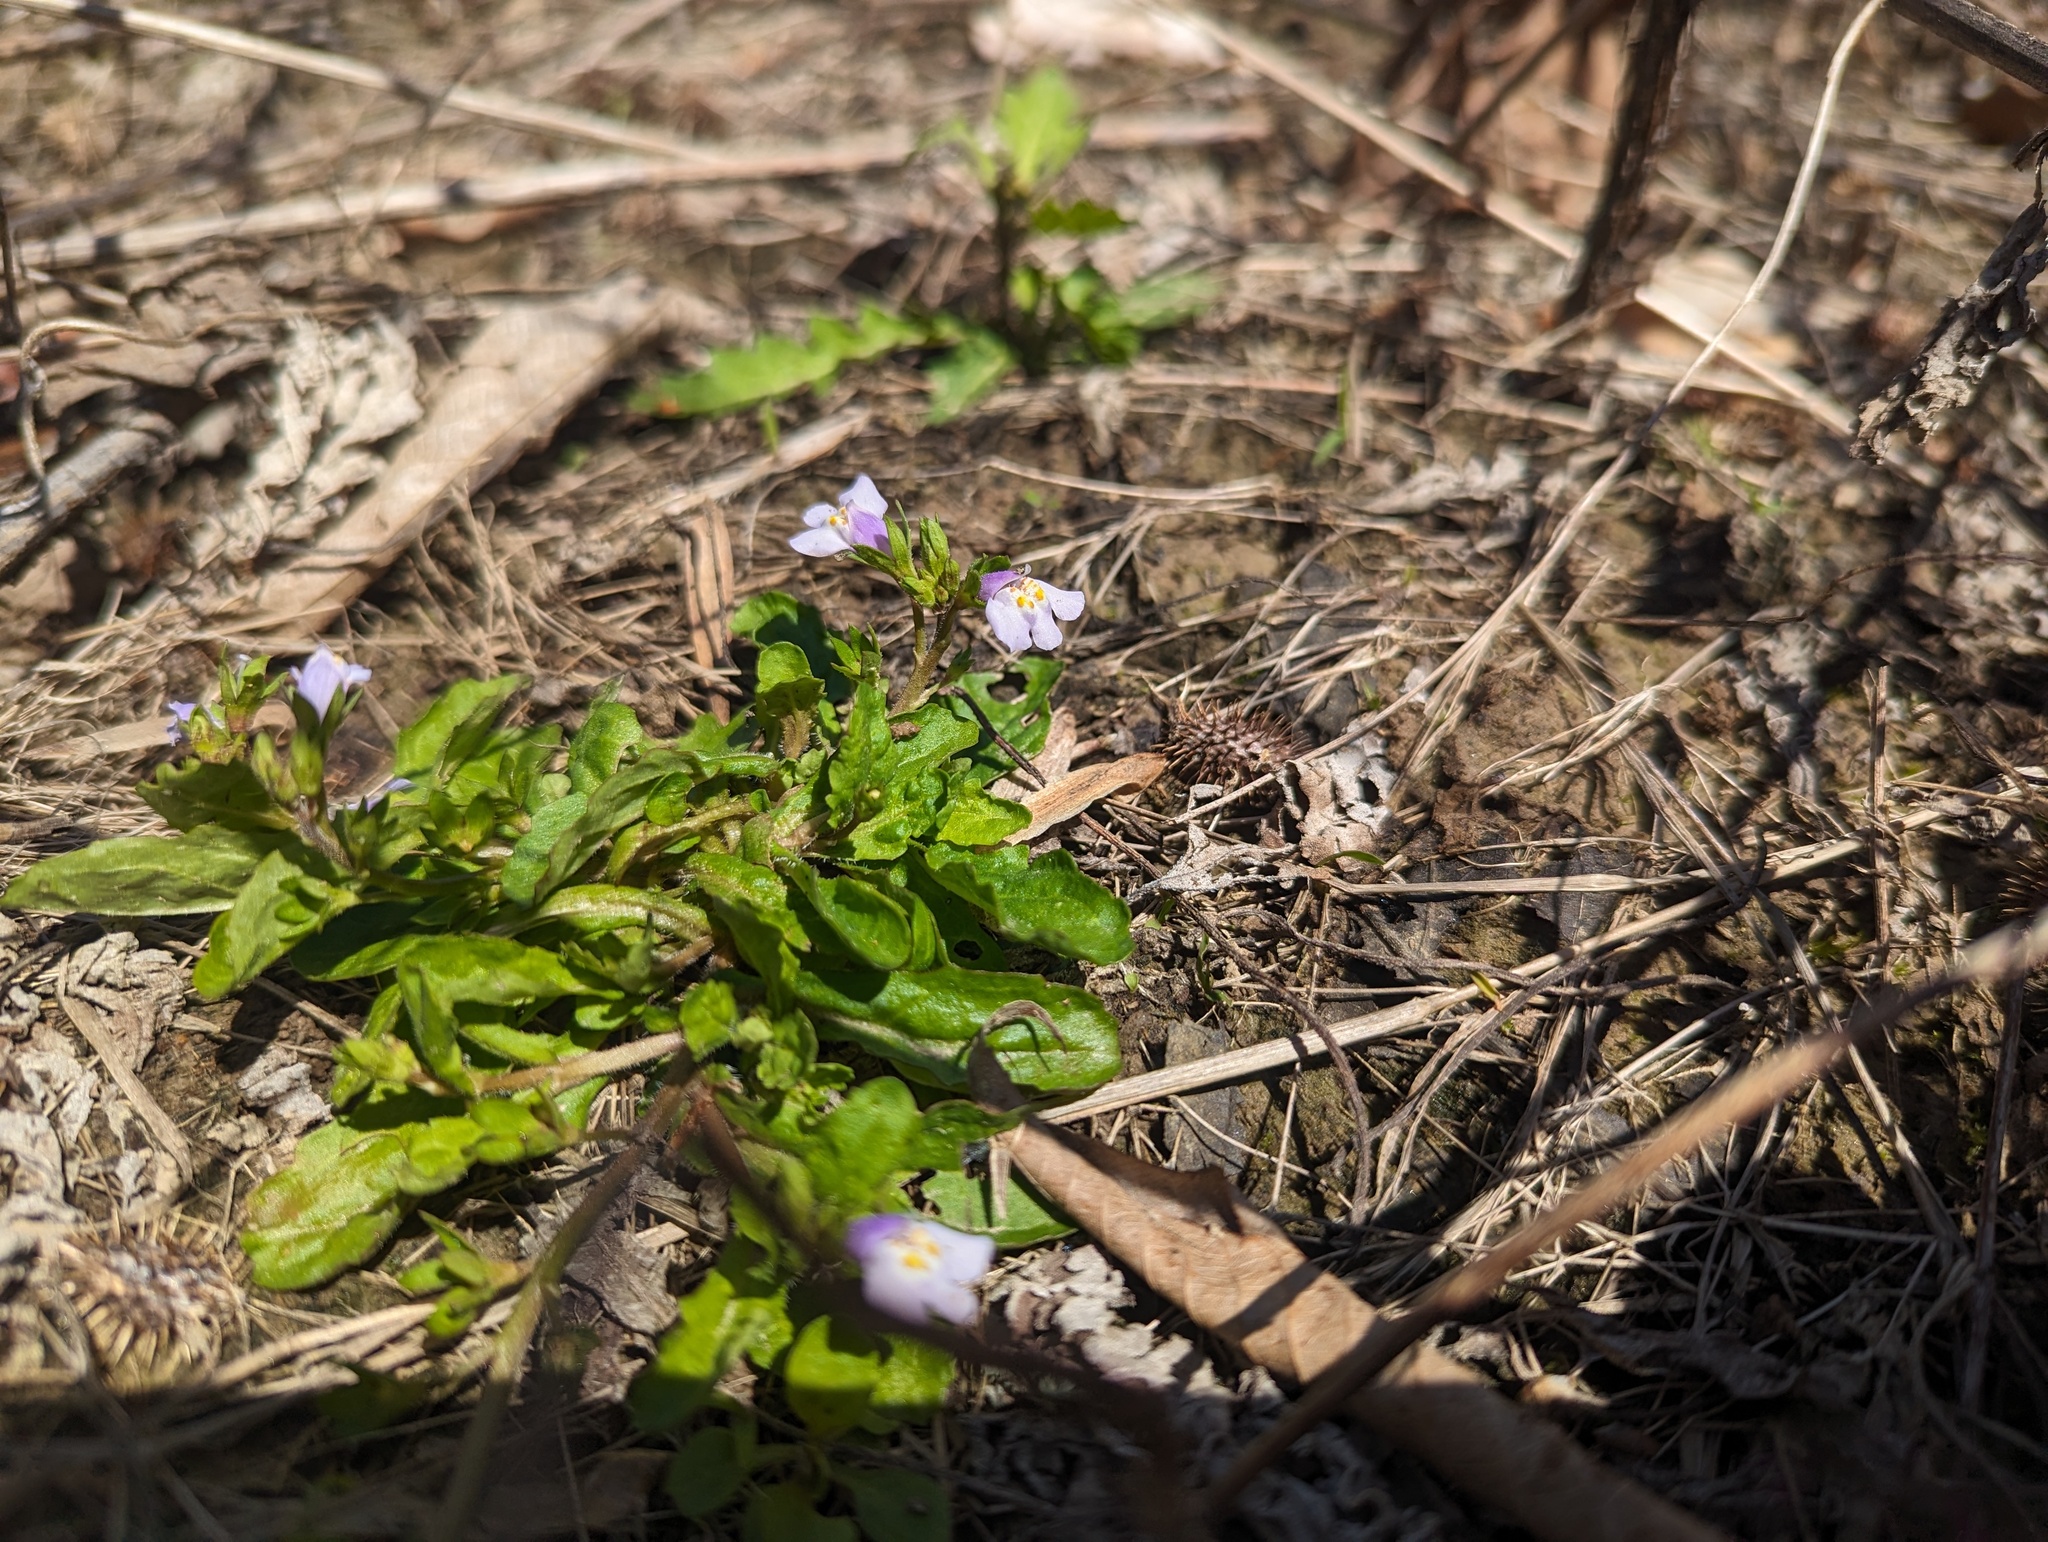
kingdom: Plantae
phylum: Tracheophyta
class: Magnoliopsida
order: Lamiales
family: Mazaceae
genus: Mazus
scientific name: Mazus pumilus
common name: Japanese mazus
